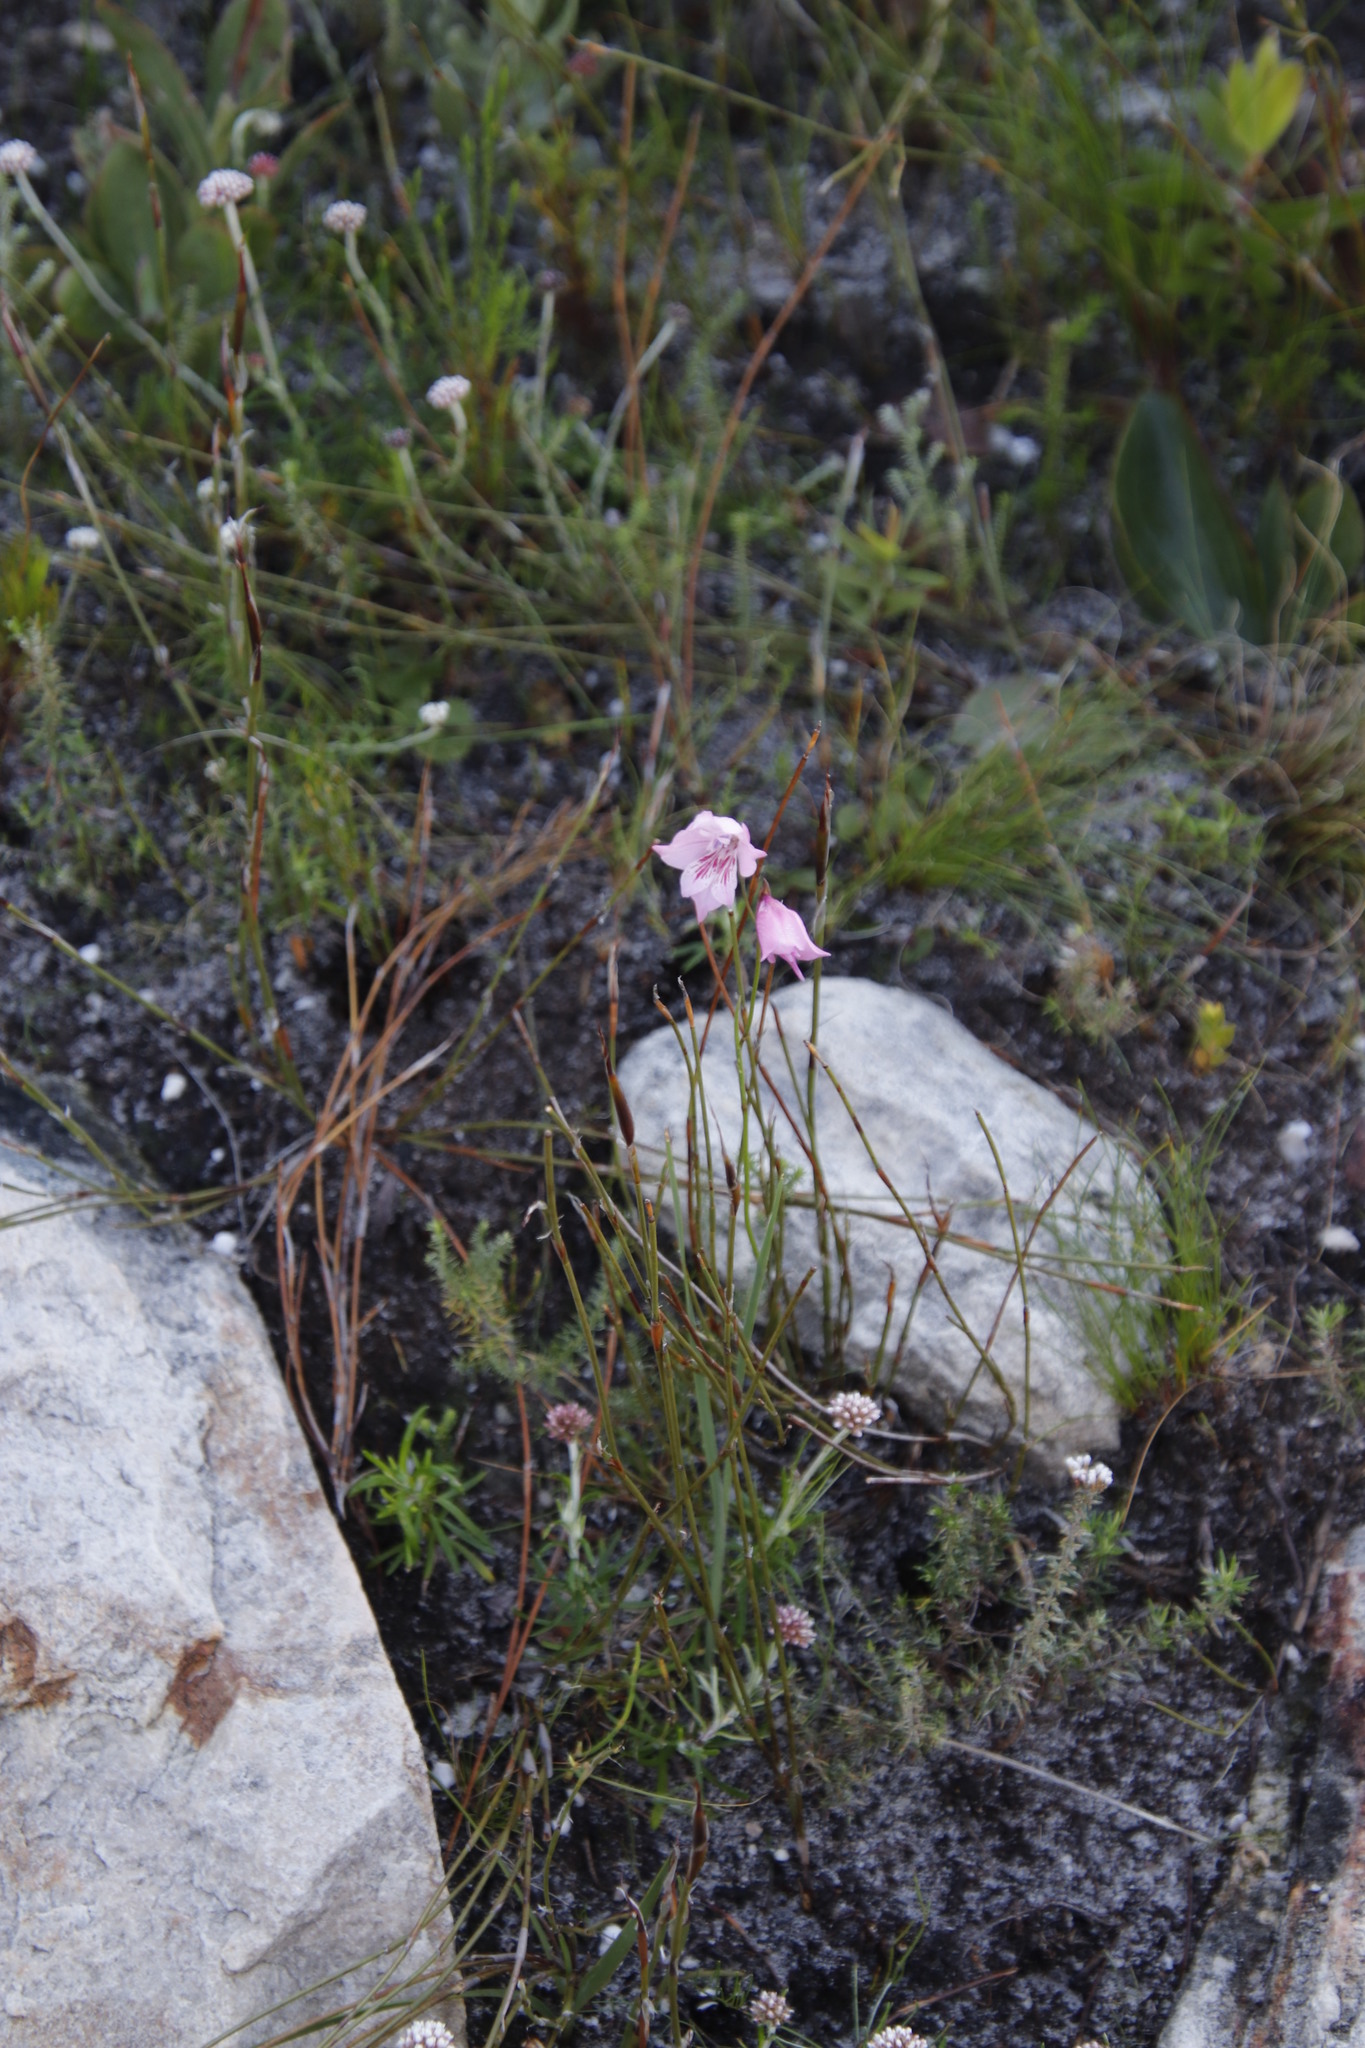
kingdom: Plantae
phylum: Tracheophyta
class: Liliopsida
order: Asparagales
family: Iridaceae
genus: Gladiolus
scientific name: Gladiolus hirsutus
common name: Small pink afrikaner
